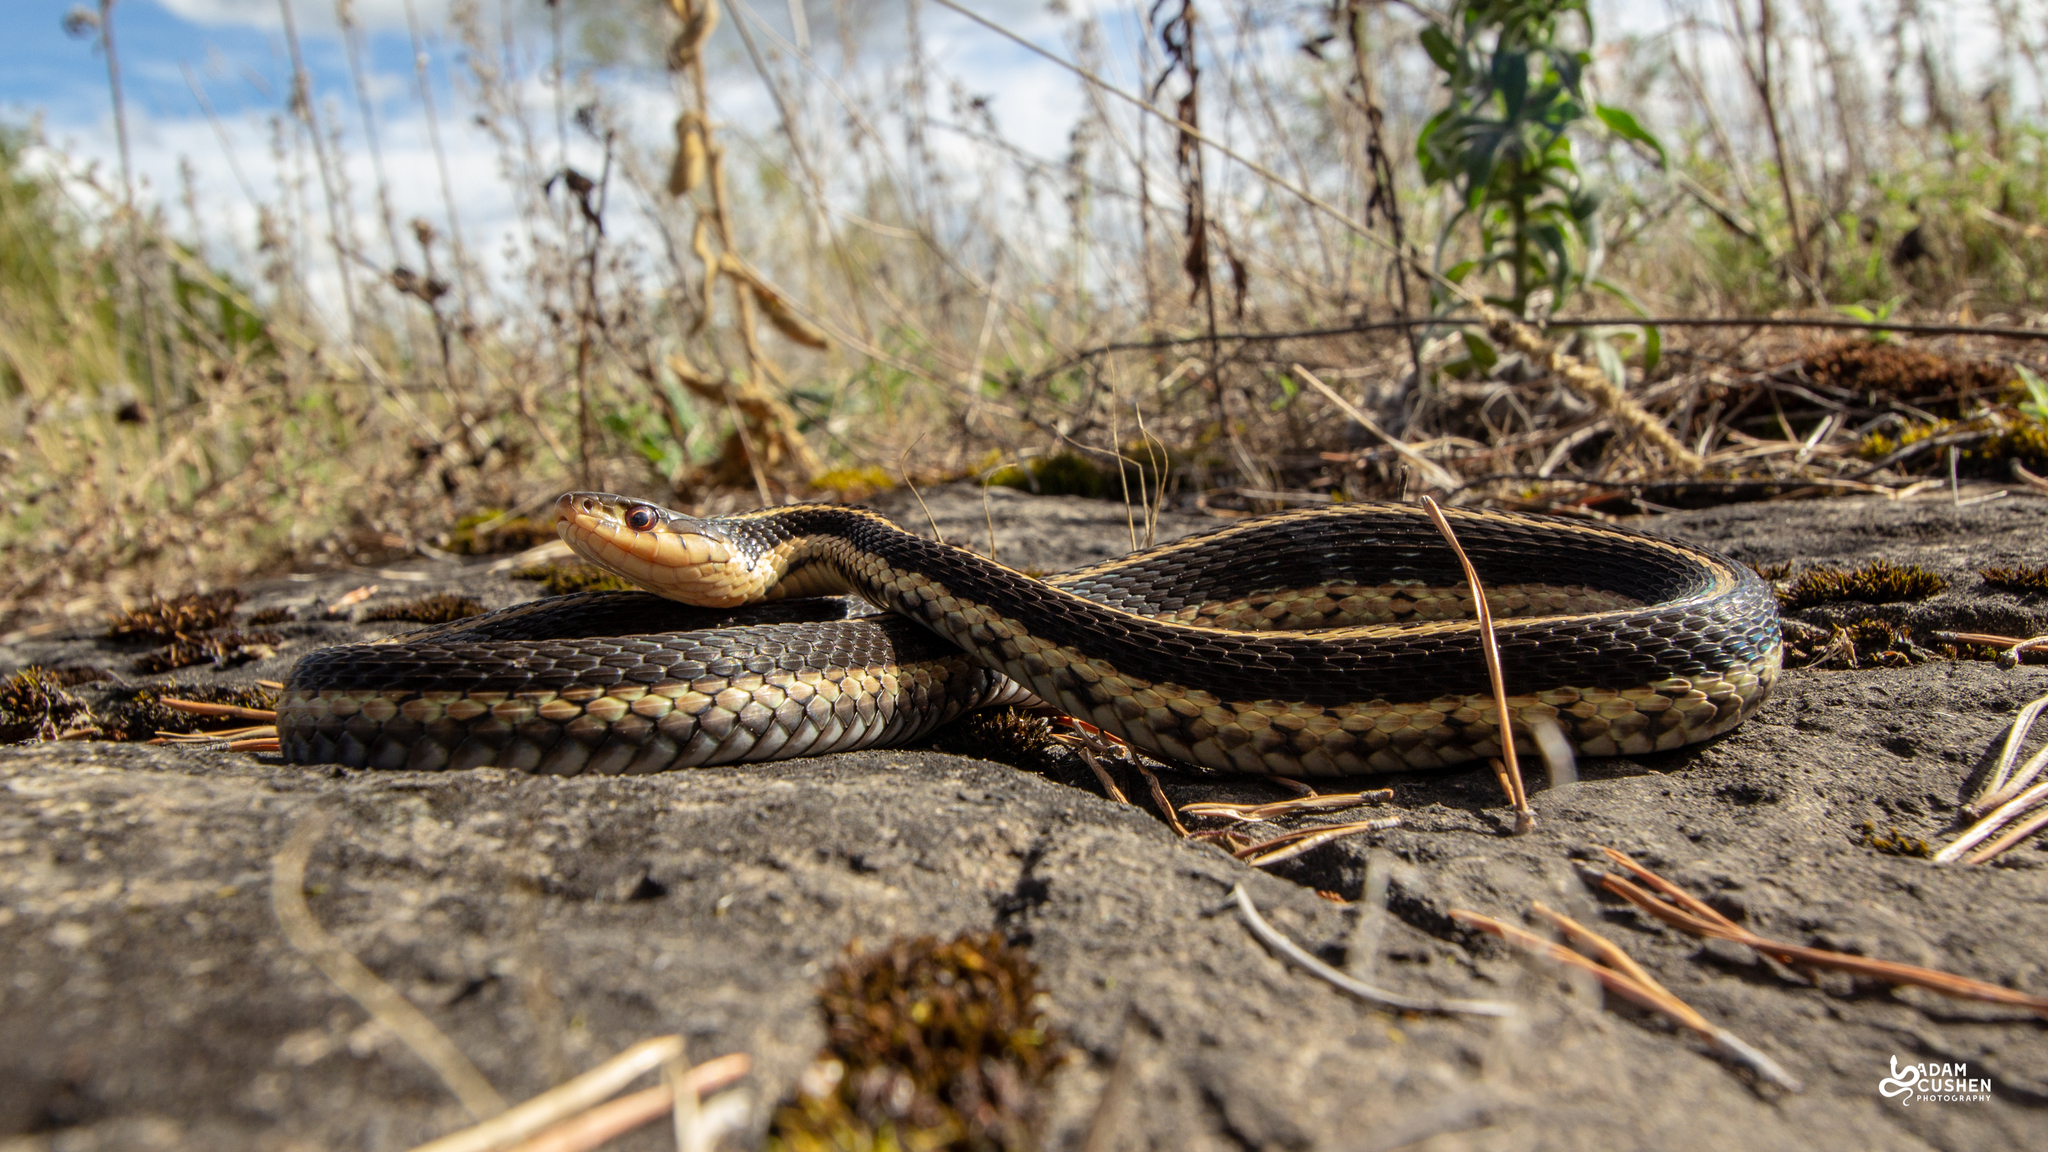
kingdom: Animalia
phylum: Chordata
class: Squamata
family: Colubridae
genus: Thamnophis
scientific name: Thamnophis sirtalis
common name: Common garter snake
